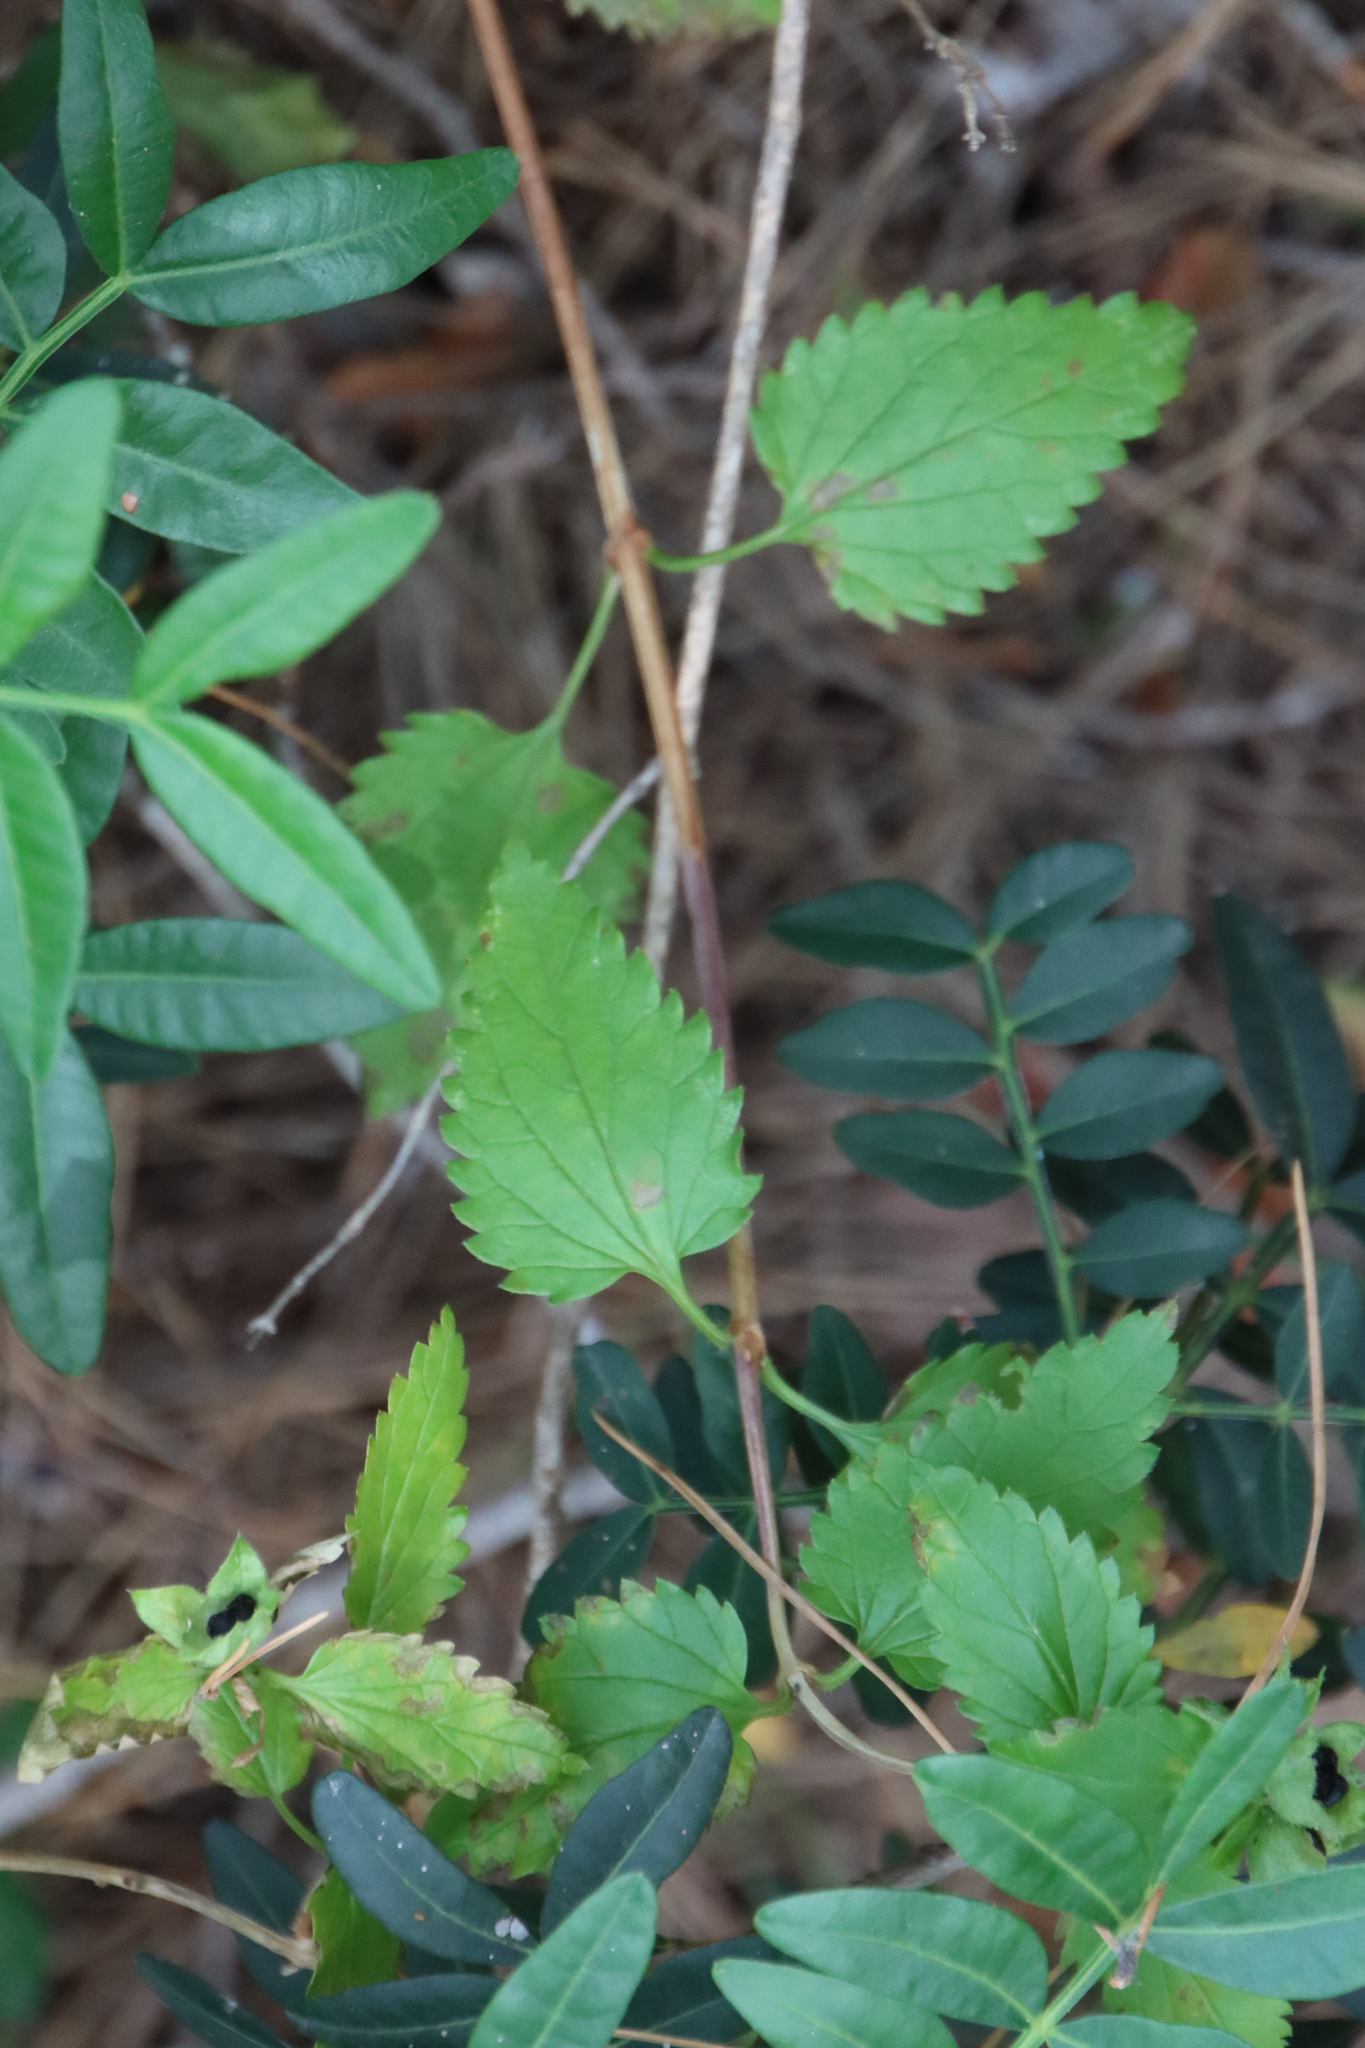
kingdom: Plantae
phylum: Tracheophyta
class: Magnoliopsida
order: Lamiales
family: Lamiaceae
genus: Prasium
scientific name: Prasium majus
